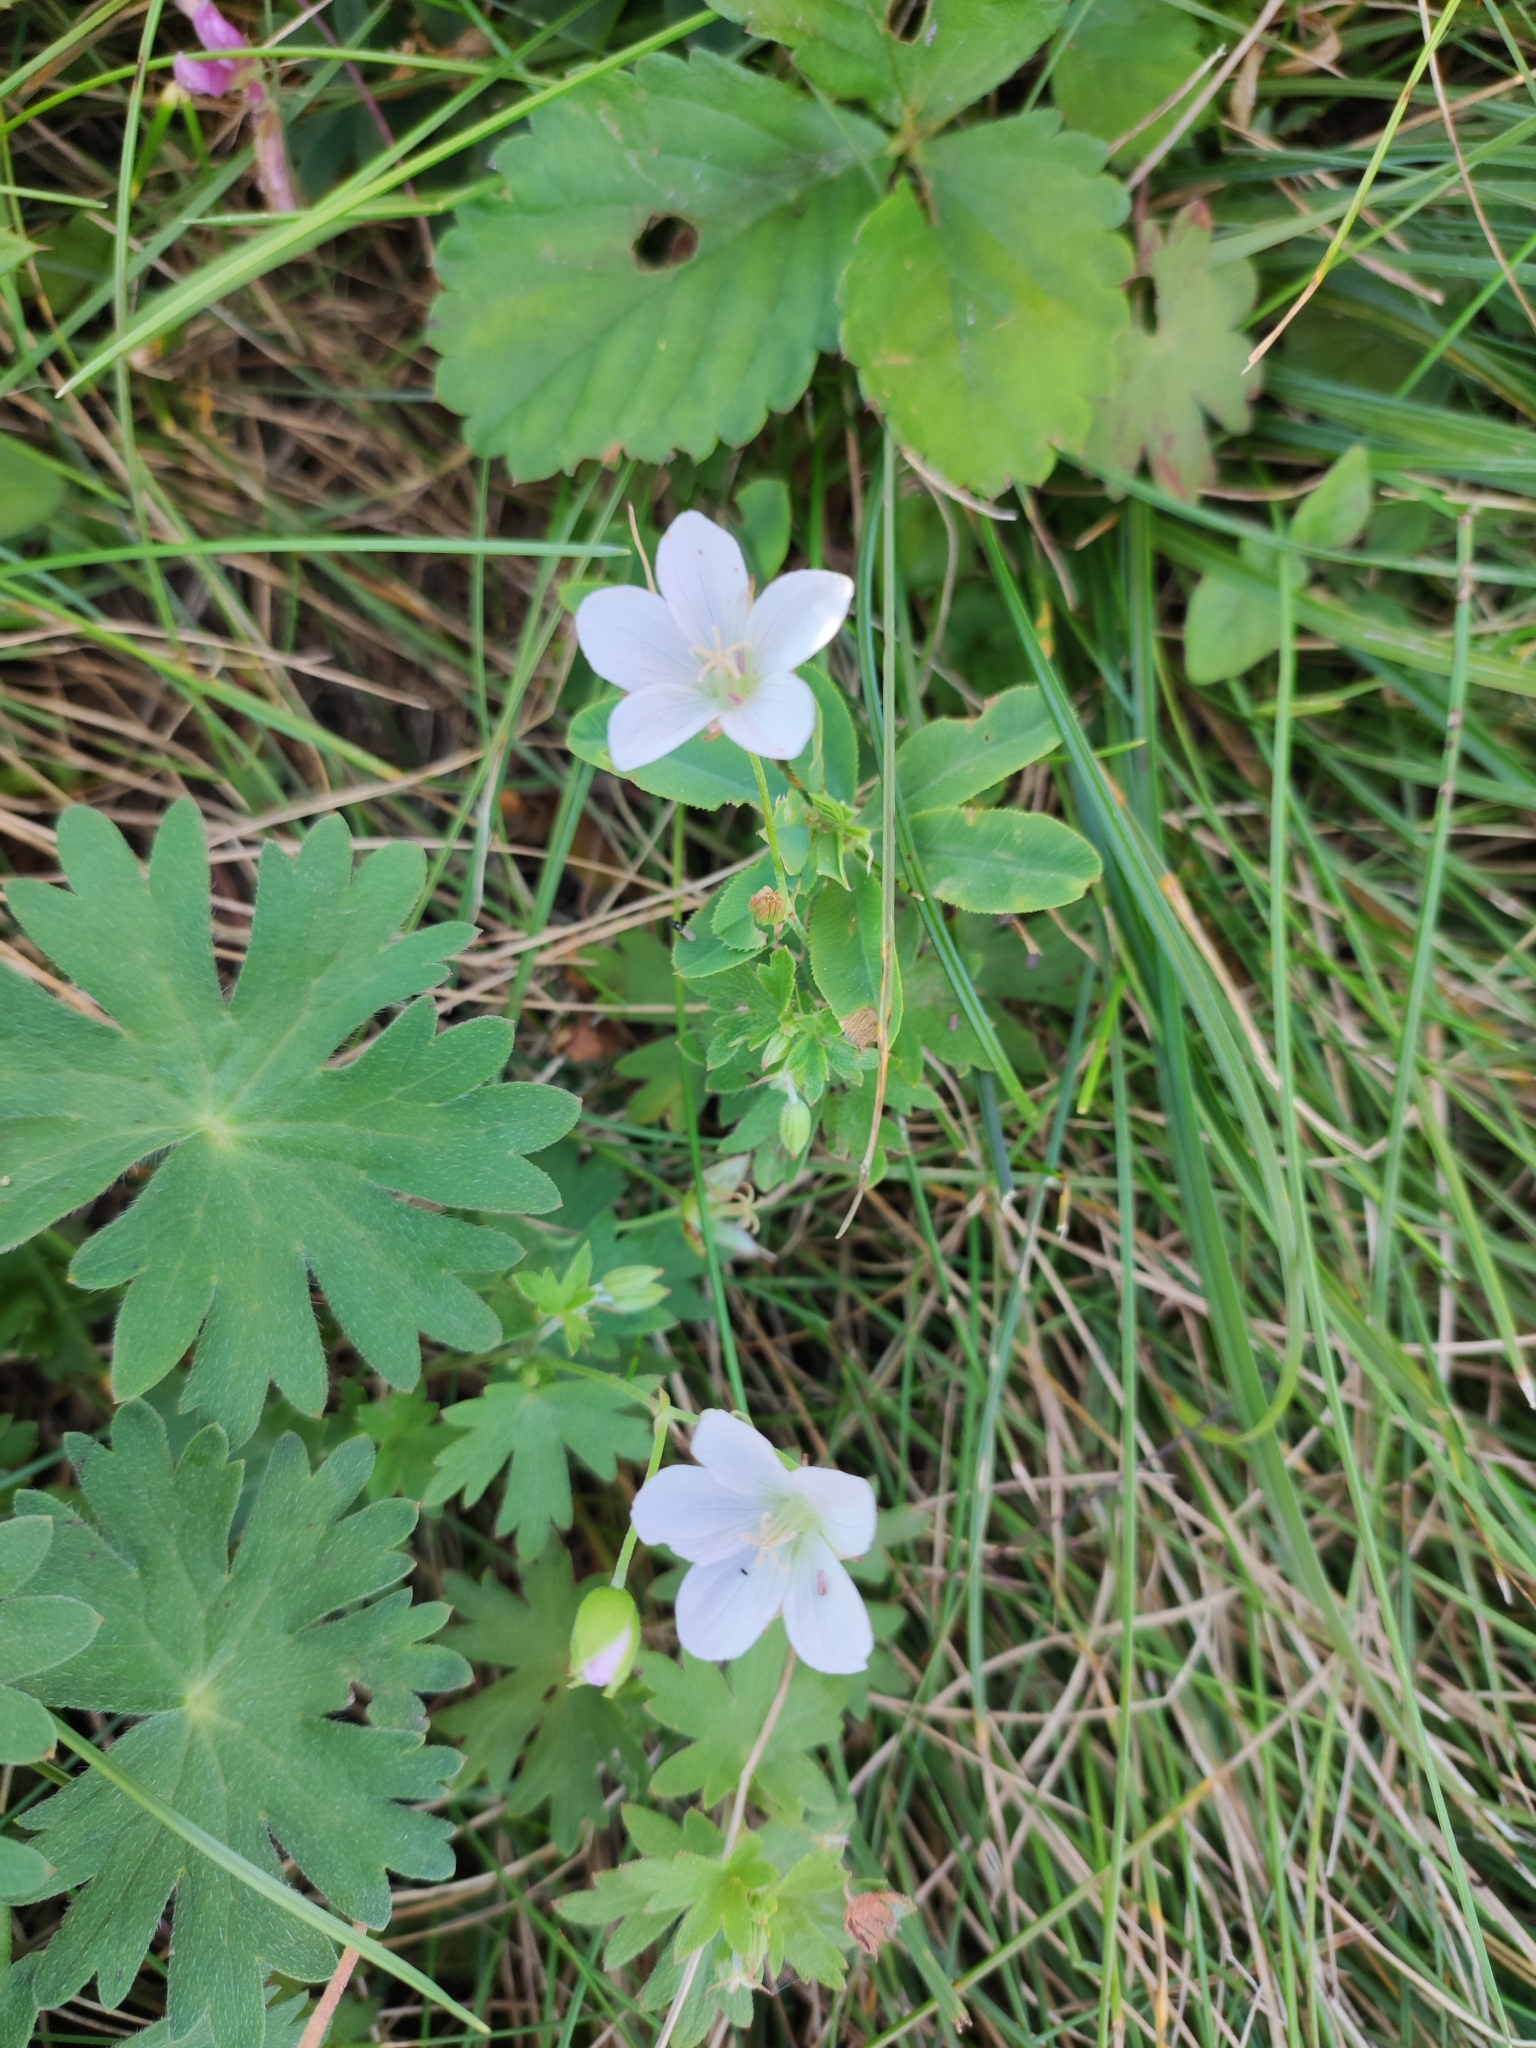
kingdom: Plantae
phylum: Tracheophyta
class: Magnoliopsida
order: Geraniales
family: Geraniaceae
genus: Geranium
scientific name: Geranium dahuricum
